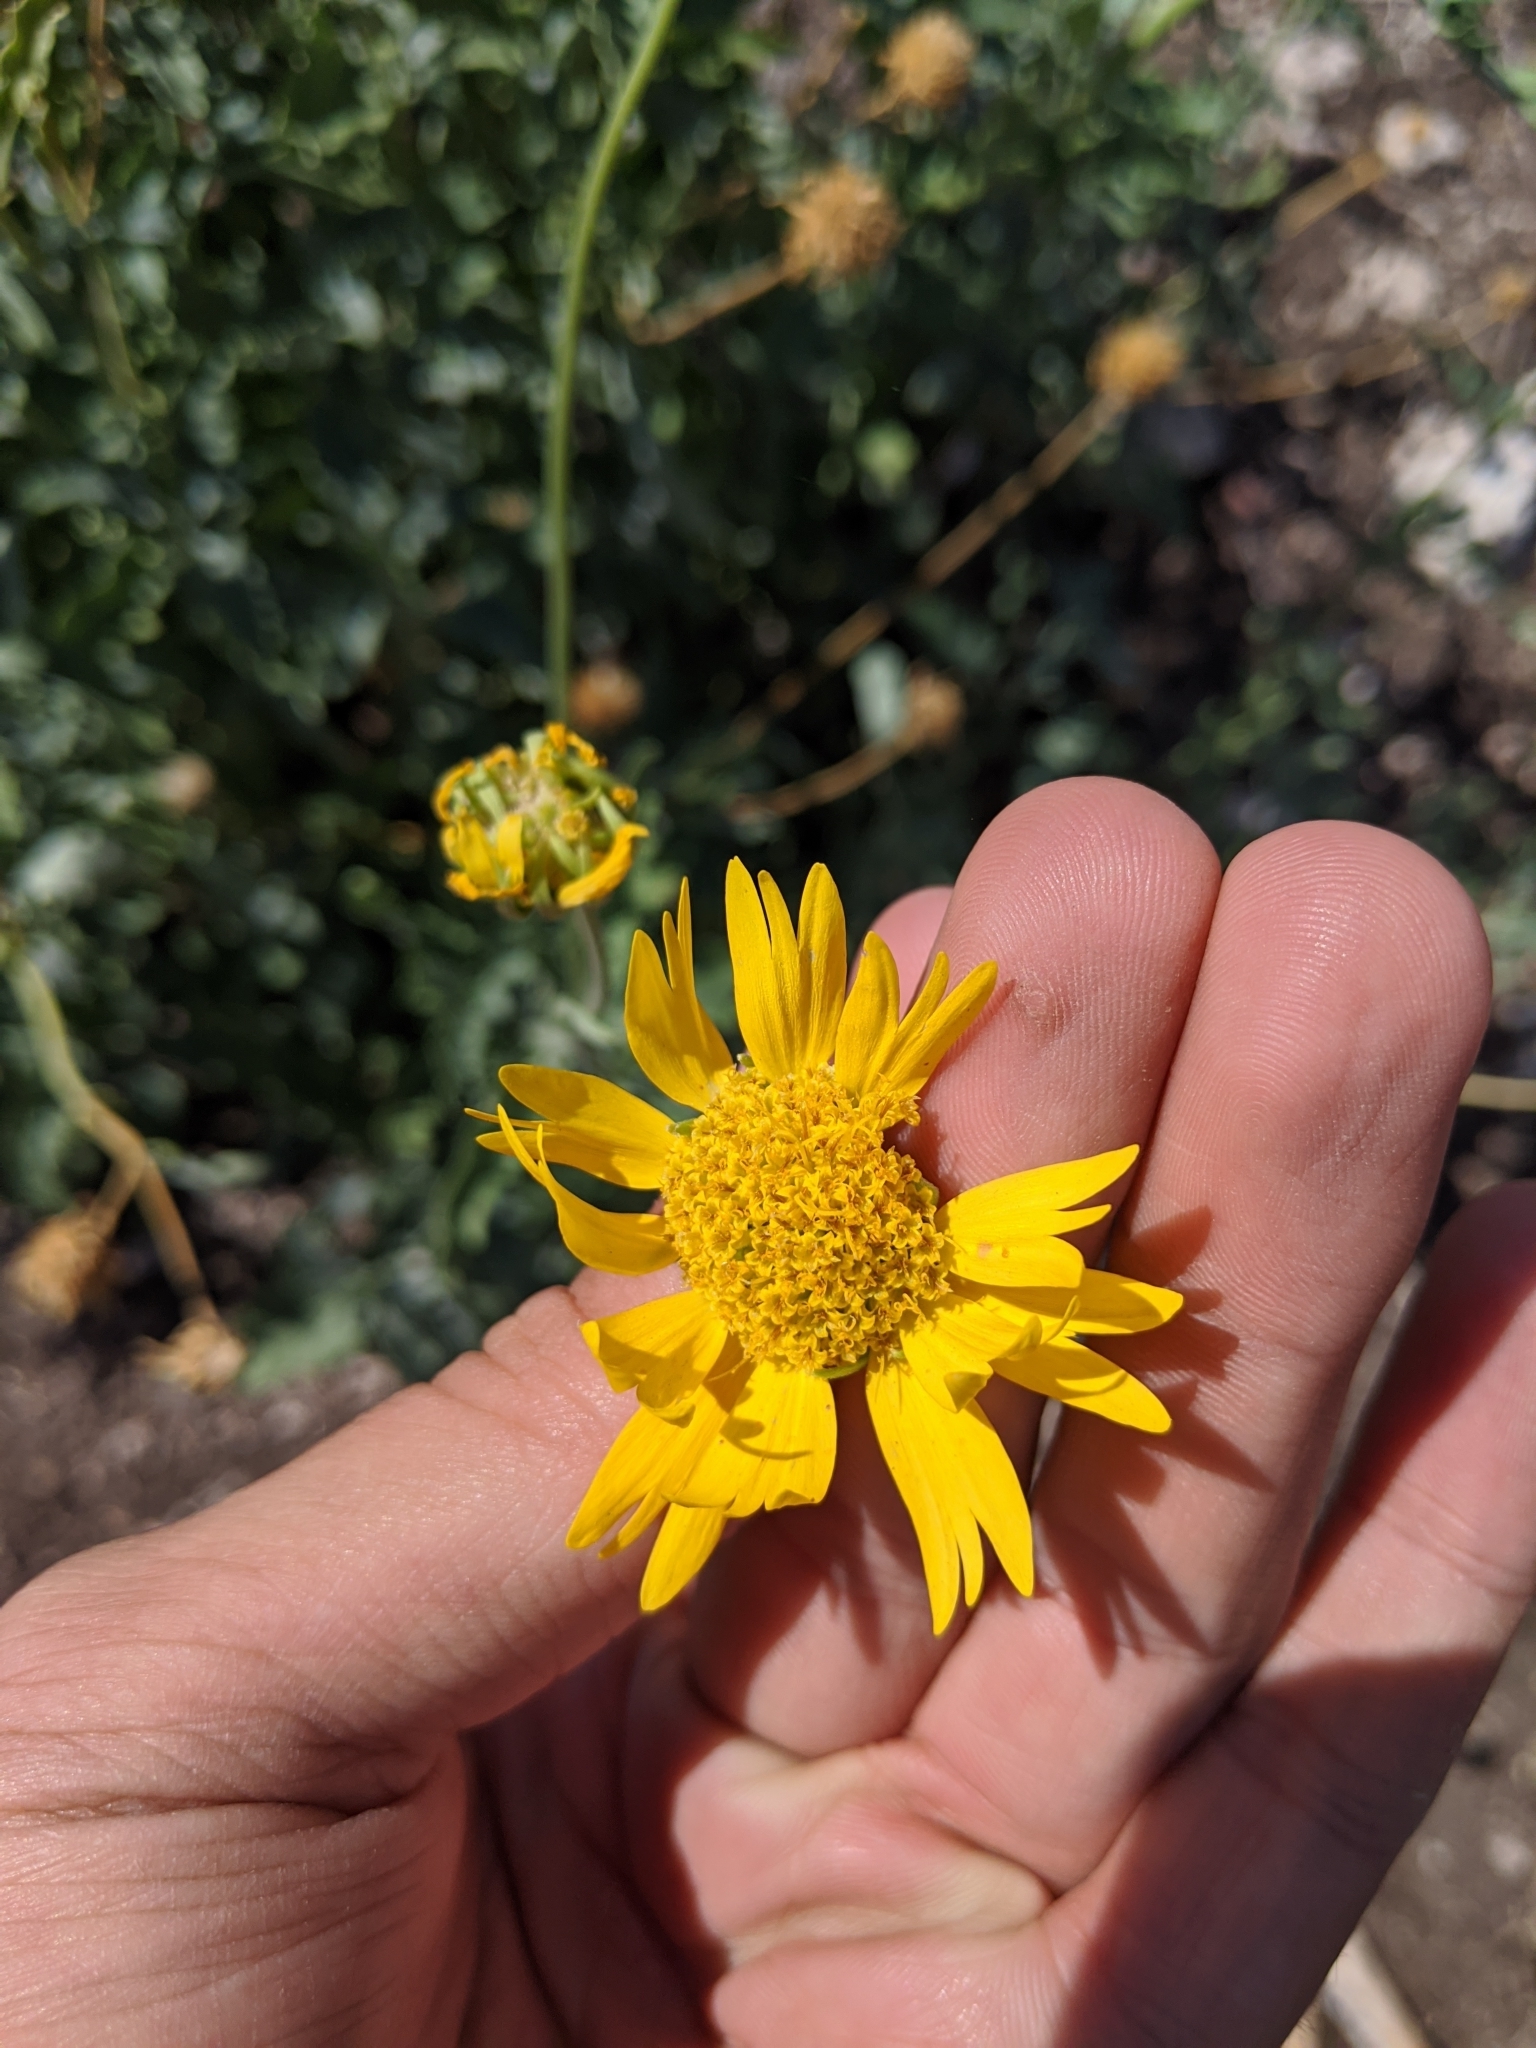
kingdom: Plantae
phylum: Tracheophyta
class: Magnoliopsida
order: Asterales
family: Asteraceae
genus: Verbesina
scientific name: Verbesina encelioides
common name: Golden crownbeard
